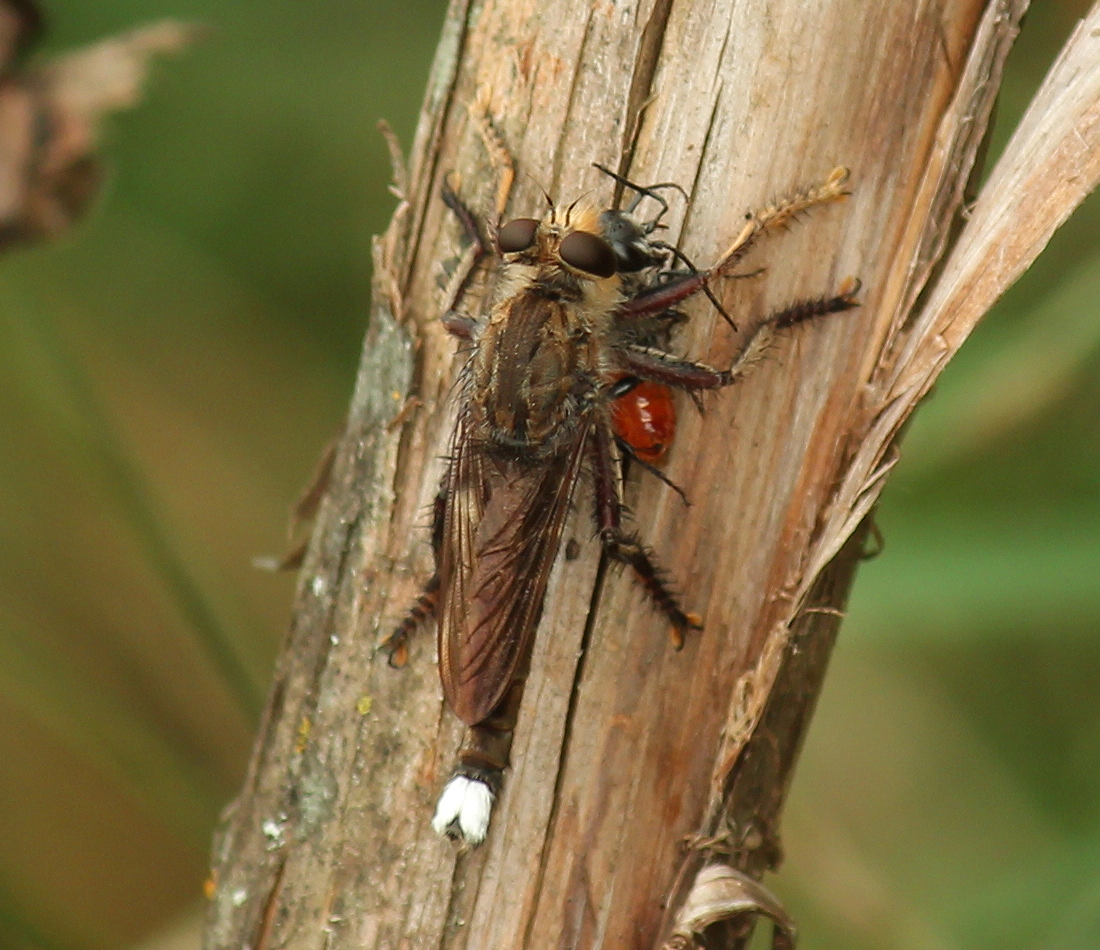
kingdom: Animalia
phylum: Arthropoda
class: Insecta
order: Diptera
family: Asilidae
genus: Promachus
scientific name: Promachus bastardii
